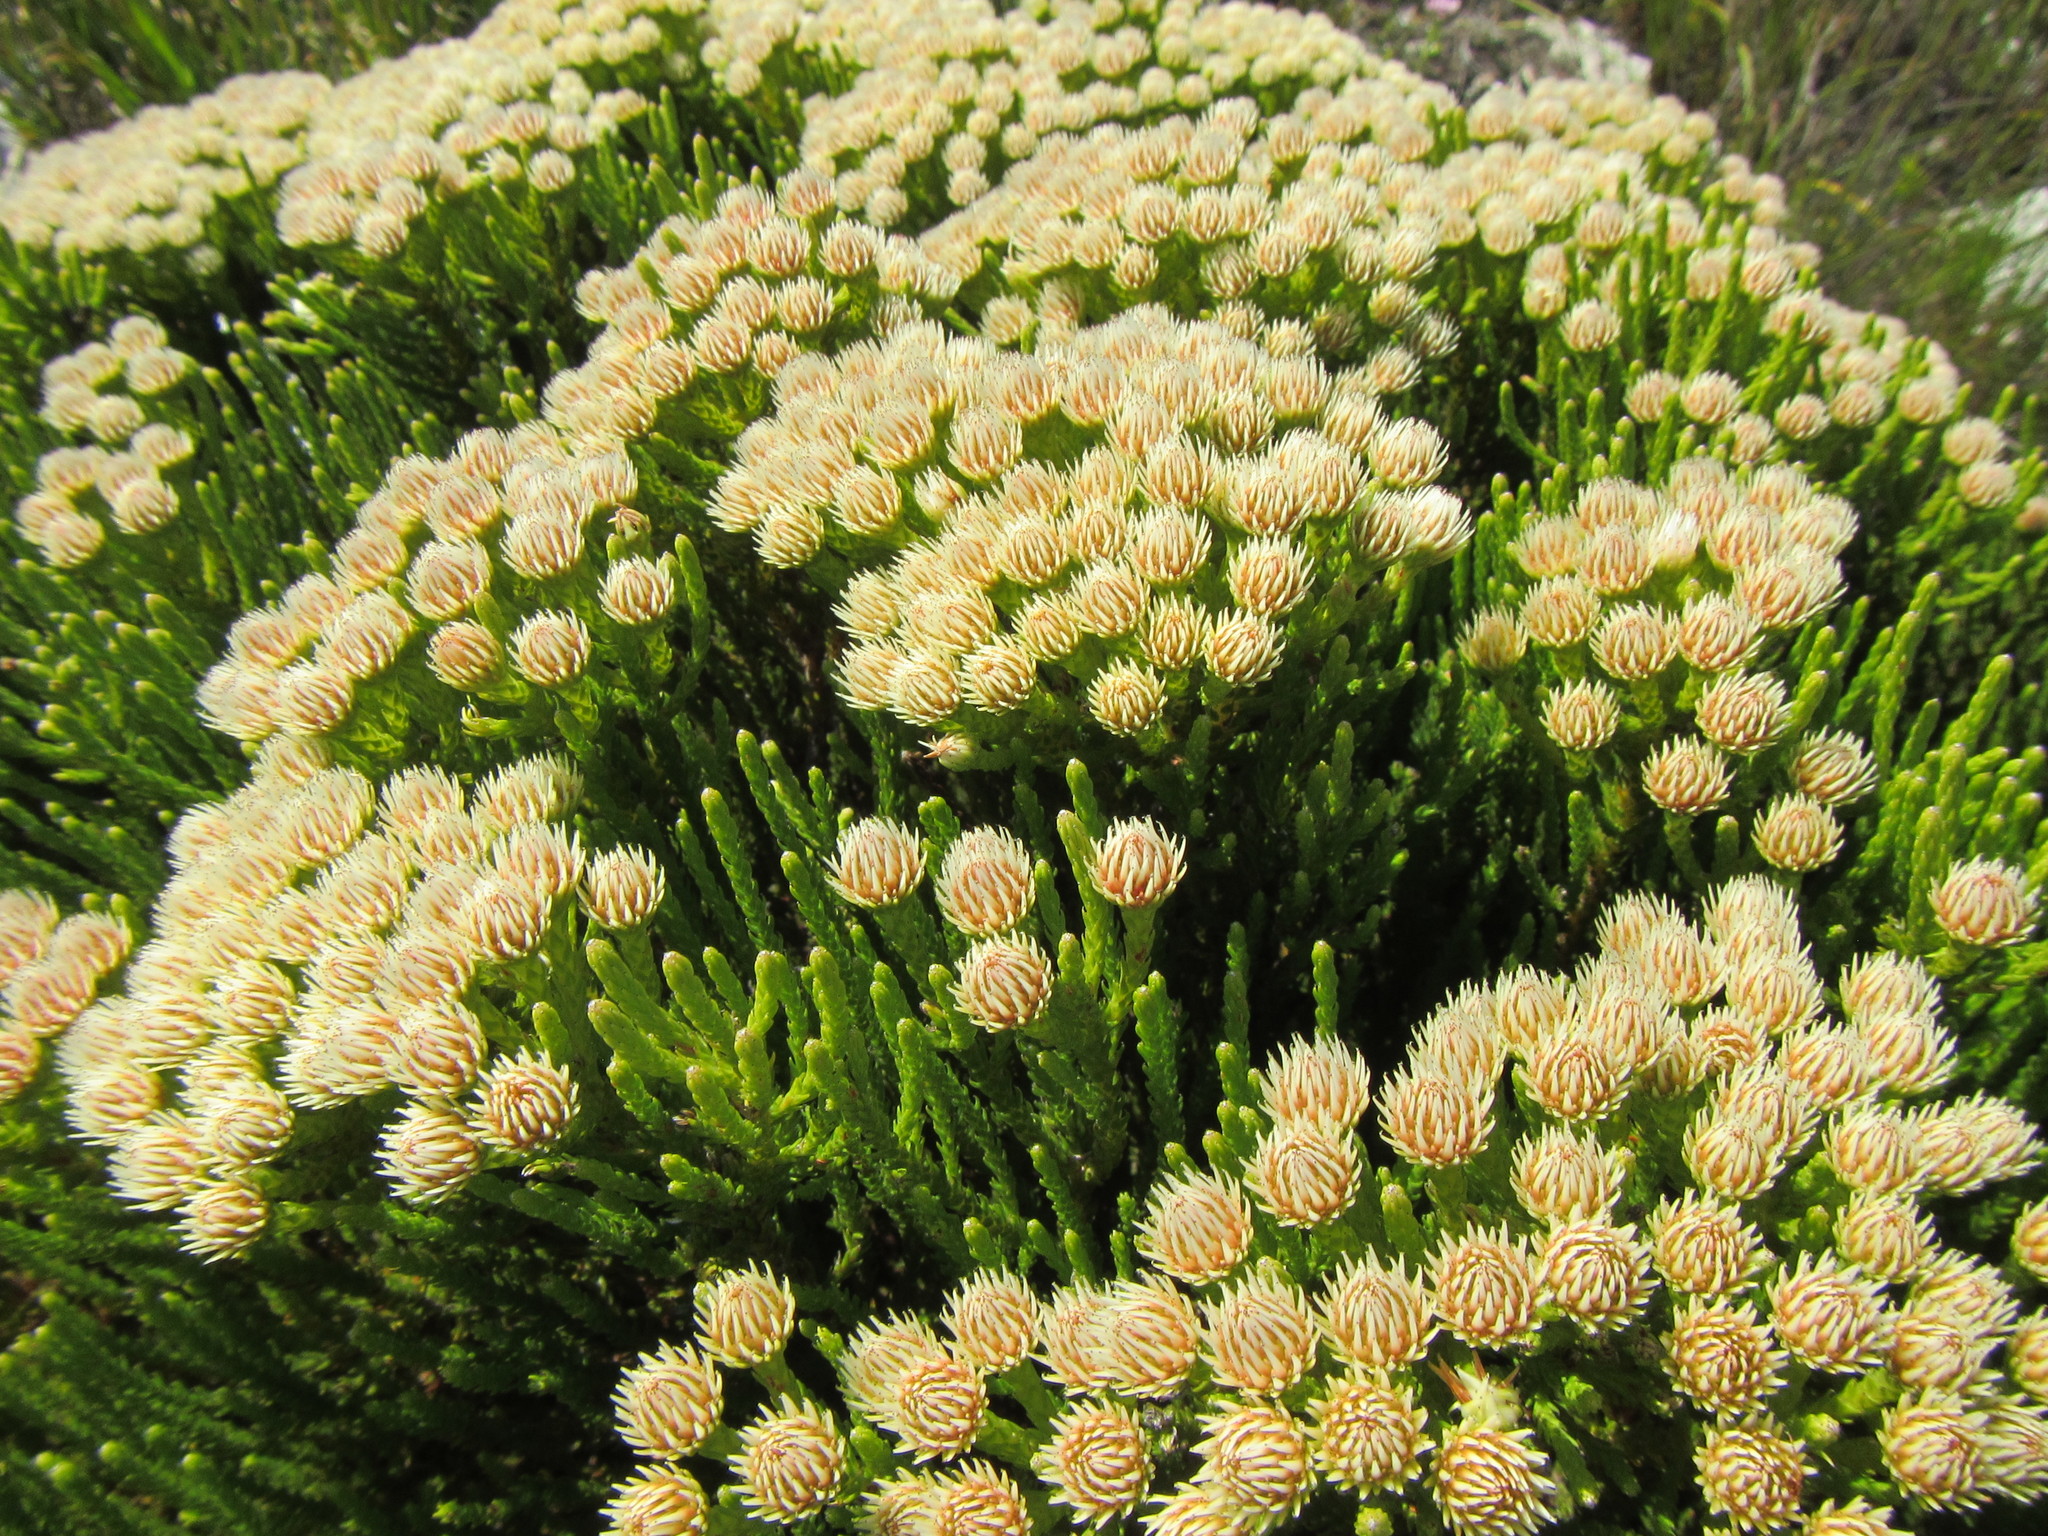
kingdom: Plantae
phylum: Tracheophyta
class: Magnoliopsida
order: Bruniales
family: Bruniaceae
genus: Brunia
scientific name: Brunia paleacea
